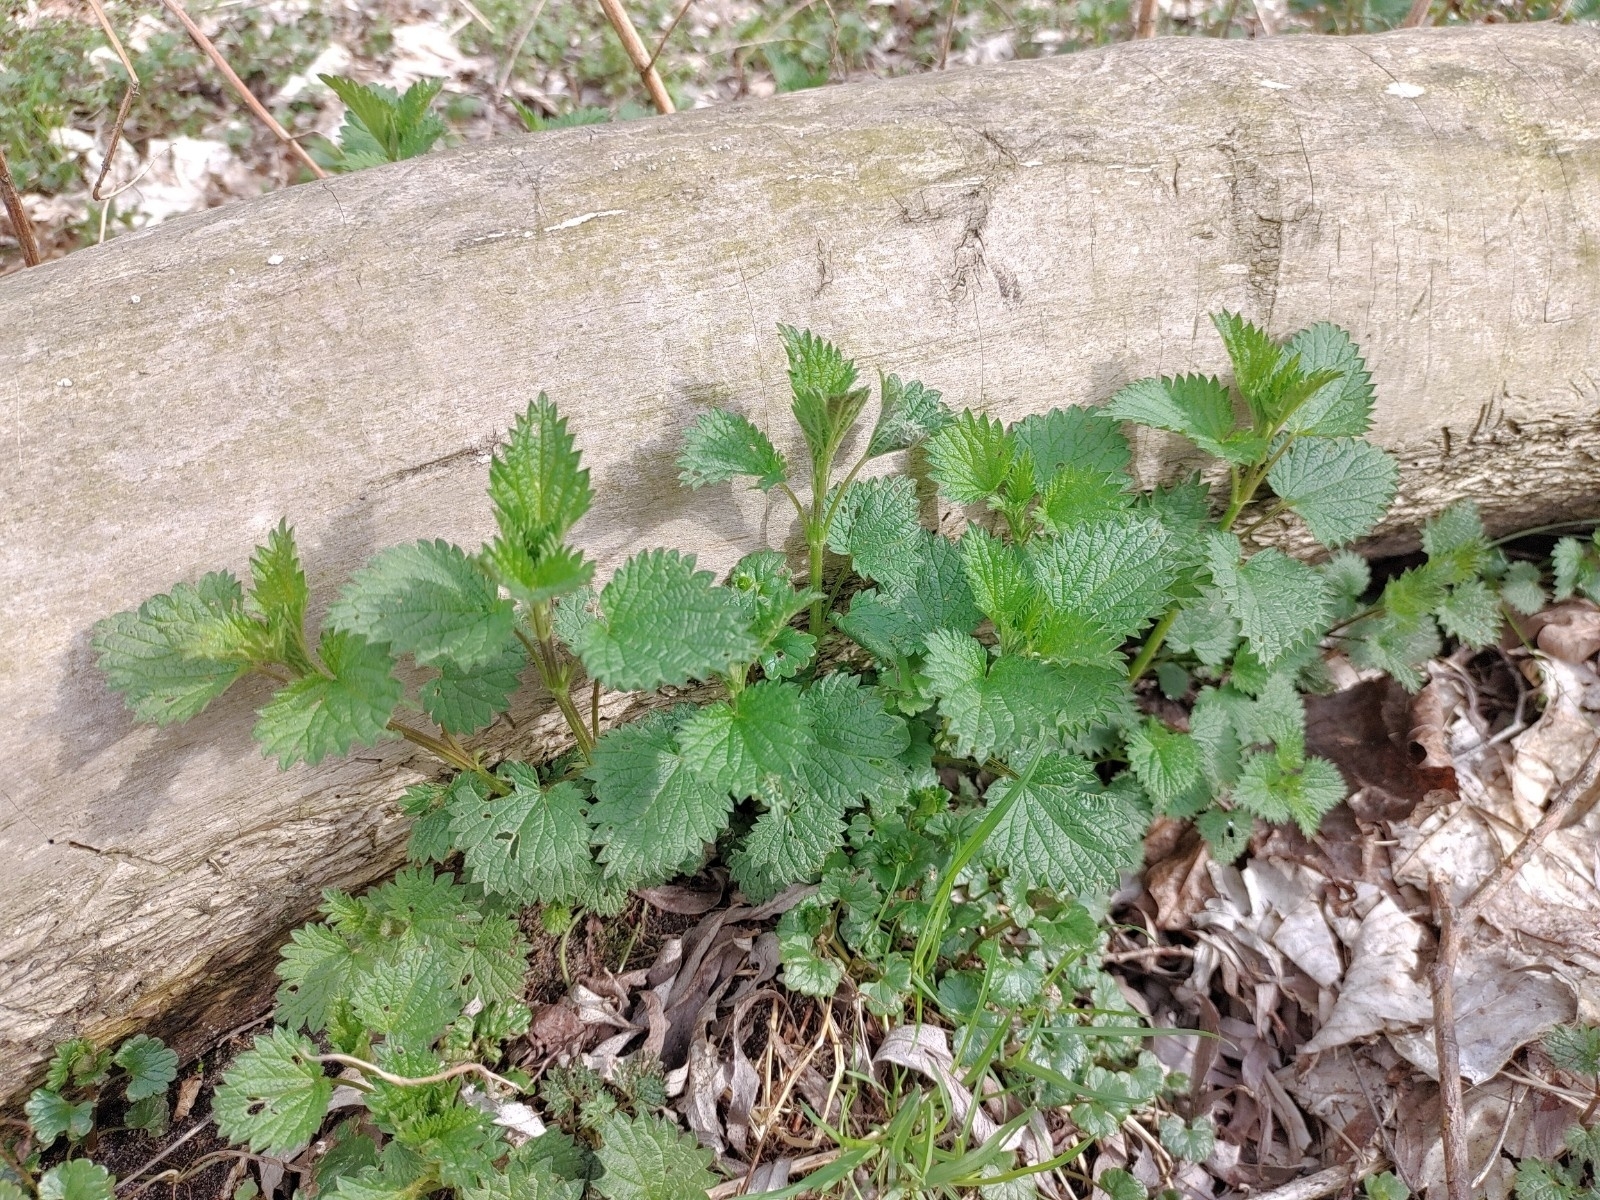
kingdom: Plantae
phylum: Tracheophyta
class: Magnoliopsida
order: Rosales
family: Urticaceae
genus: Urtica
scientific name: Urtica dioica
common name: Common nettle
